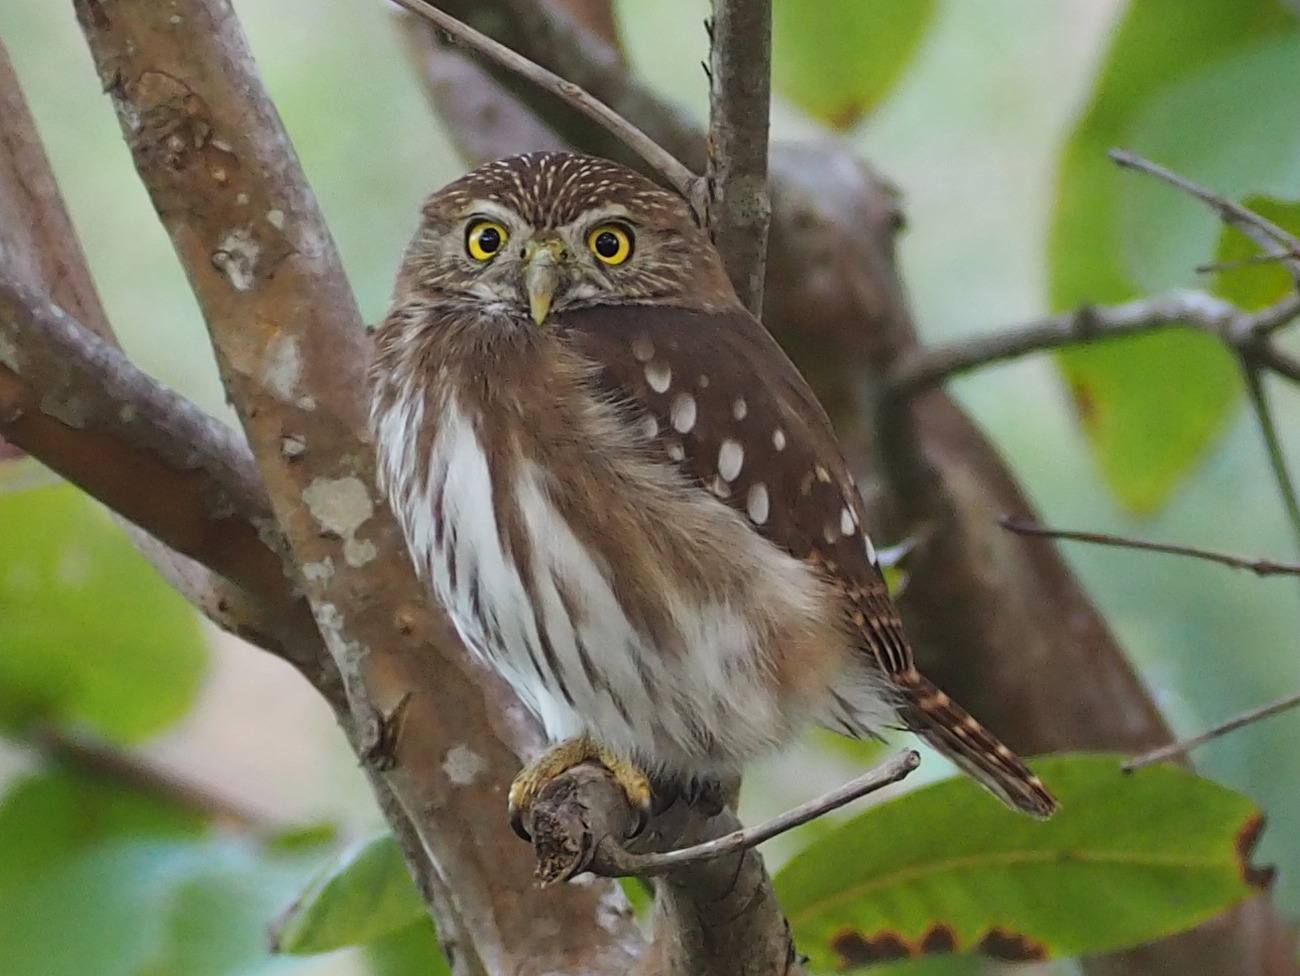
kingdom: Animalia
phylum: Chordata
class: Aves
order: Strigiformes
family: Strigidae
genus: Glaucidium
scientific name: Glaucidium brasilianum
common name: Ferruginous pygmy-owl
